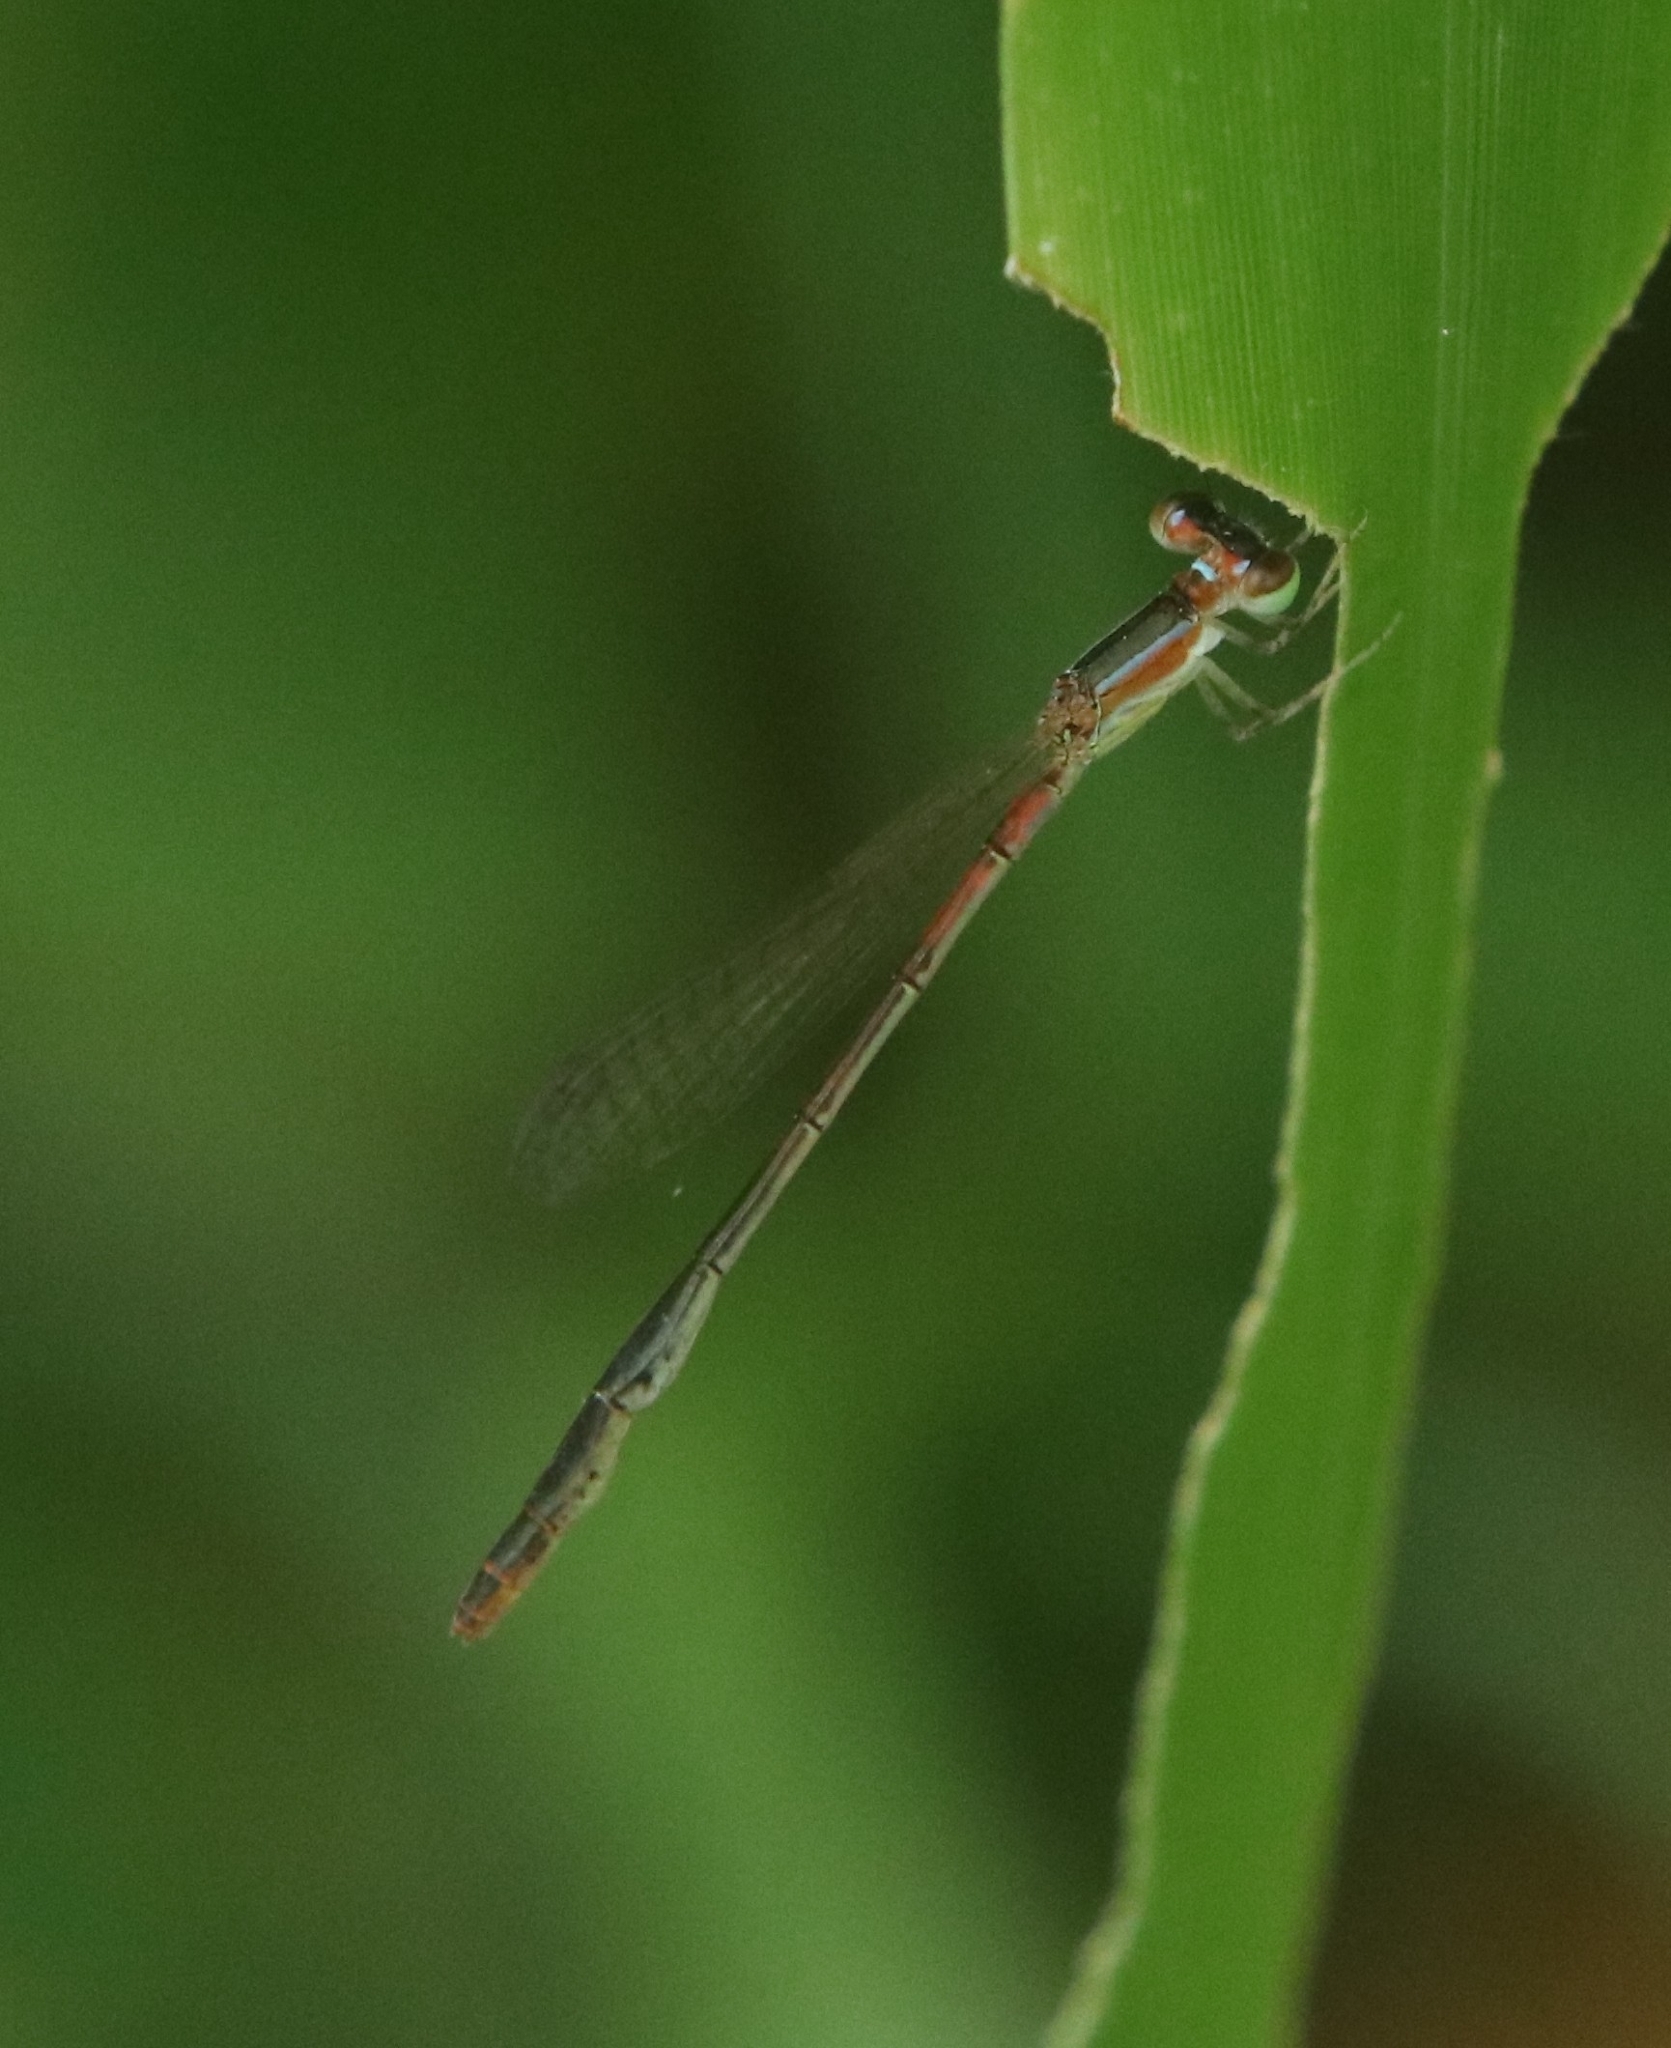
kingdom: Animalia
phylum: Arthropoda
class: Insecta
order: Odonata
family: Coenagrionidae
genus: Agriocnemis
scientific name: Agriocnemis pygmaea
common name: Pygmy wisp
